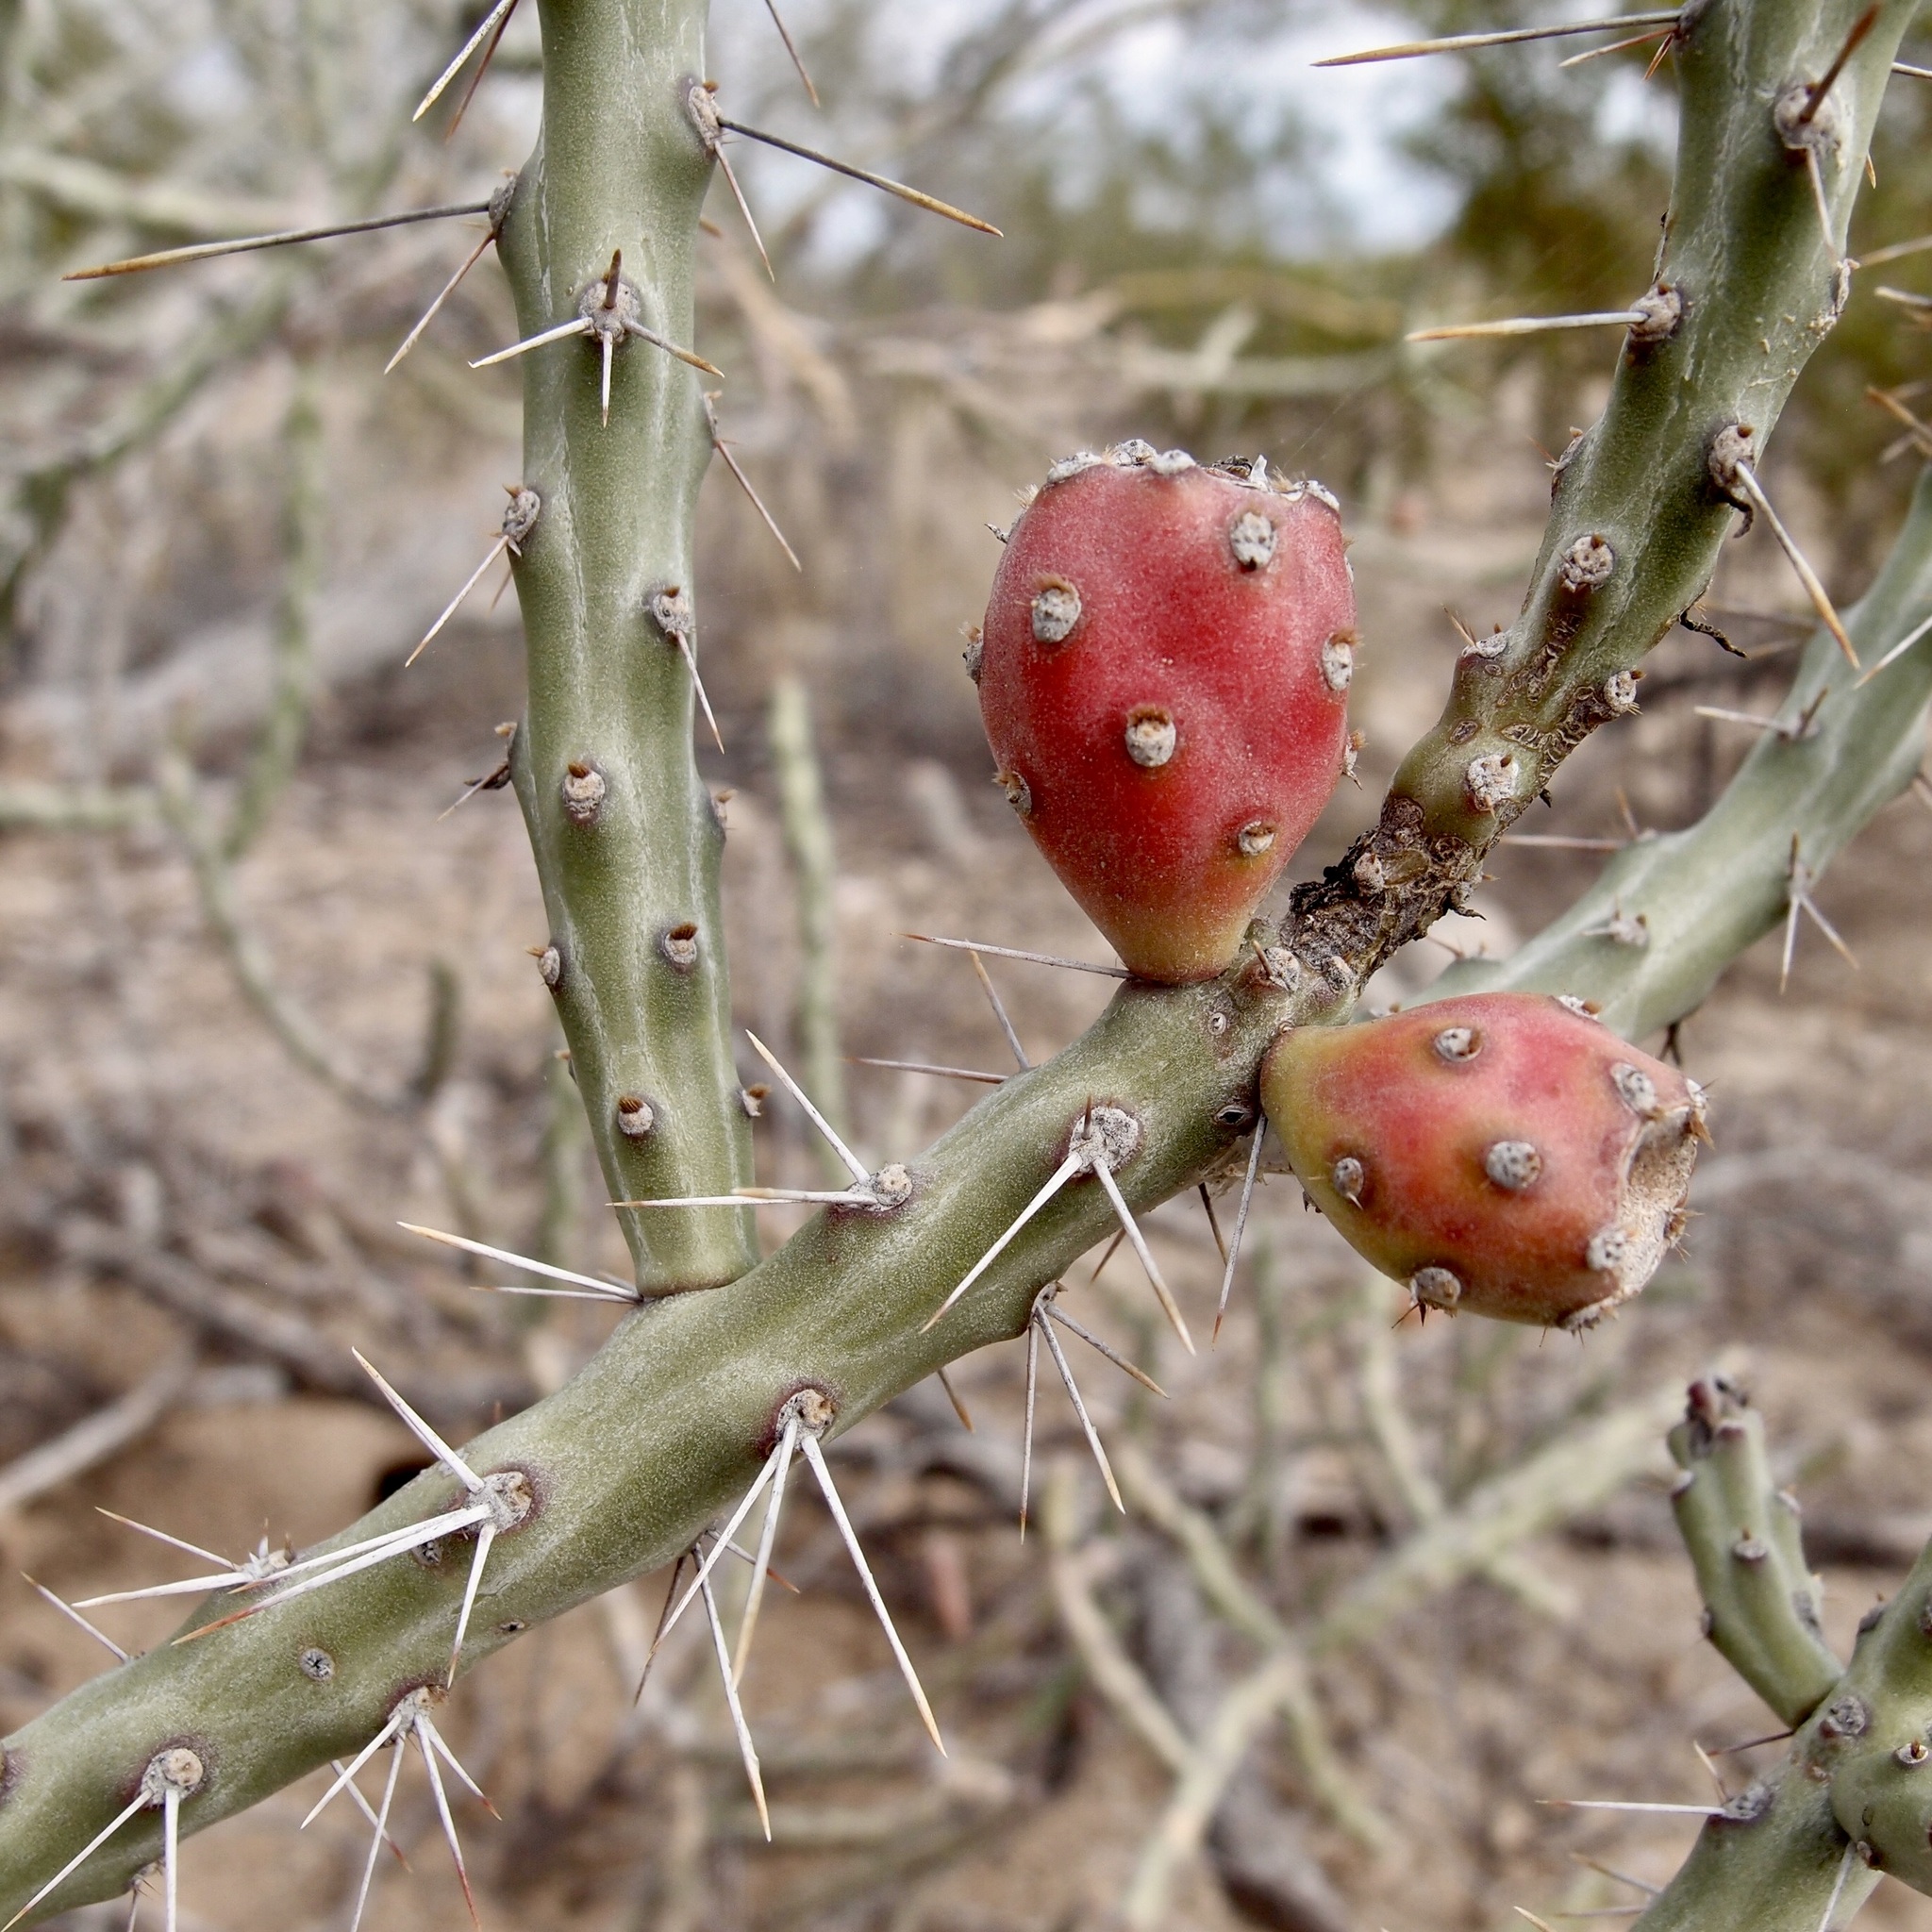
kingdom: Plantae
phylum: Tracheophyta
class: Magnoliopsida
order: Caryophyllales
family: Cactaceae
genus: Cylindropuntia
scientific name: Cylindropuntia leptocaulis
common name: Christmas cactus
